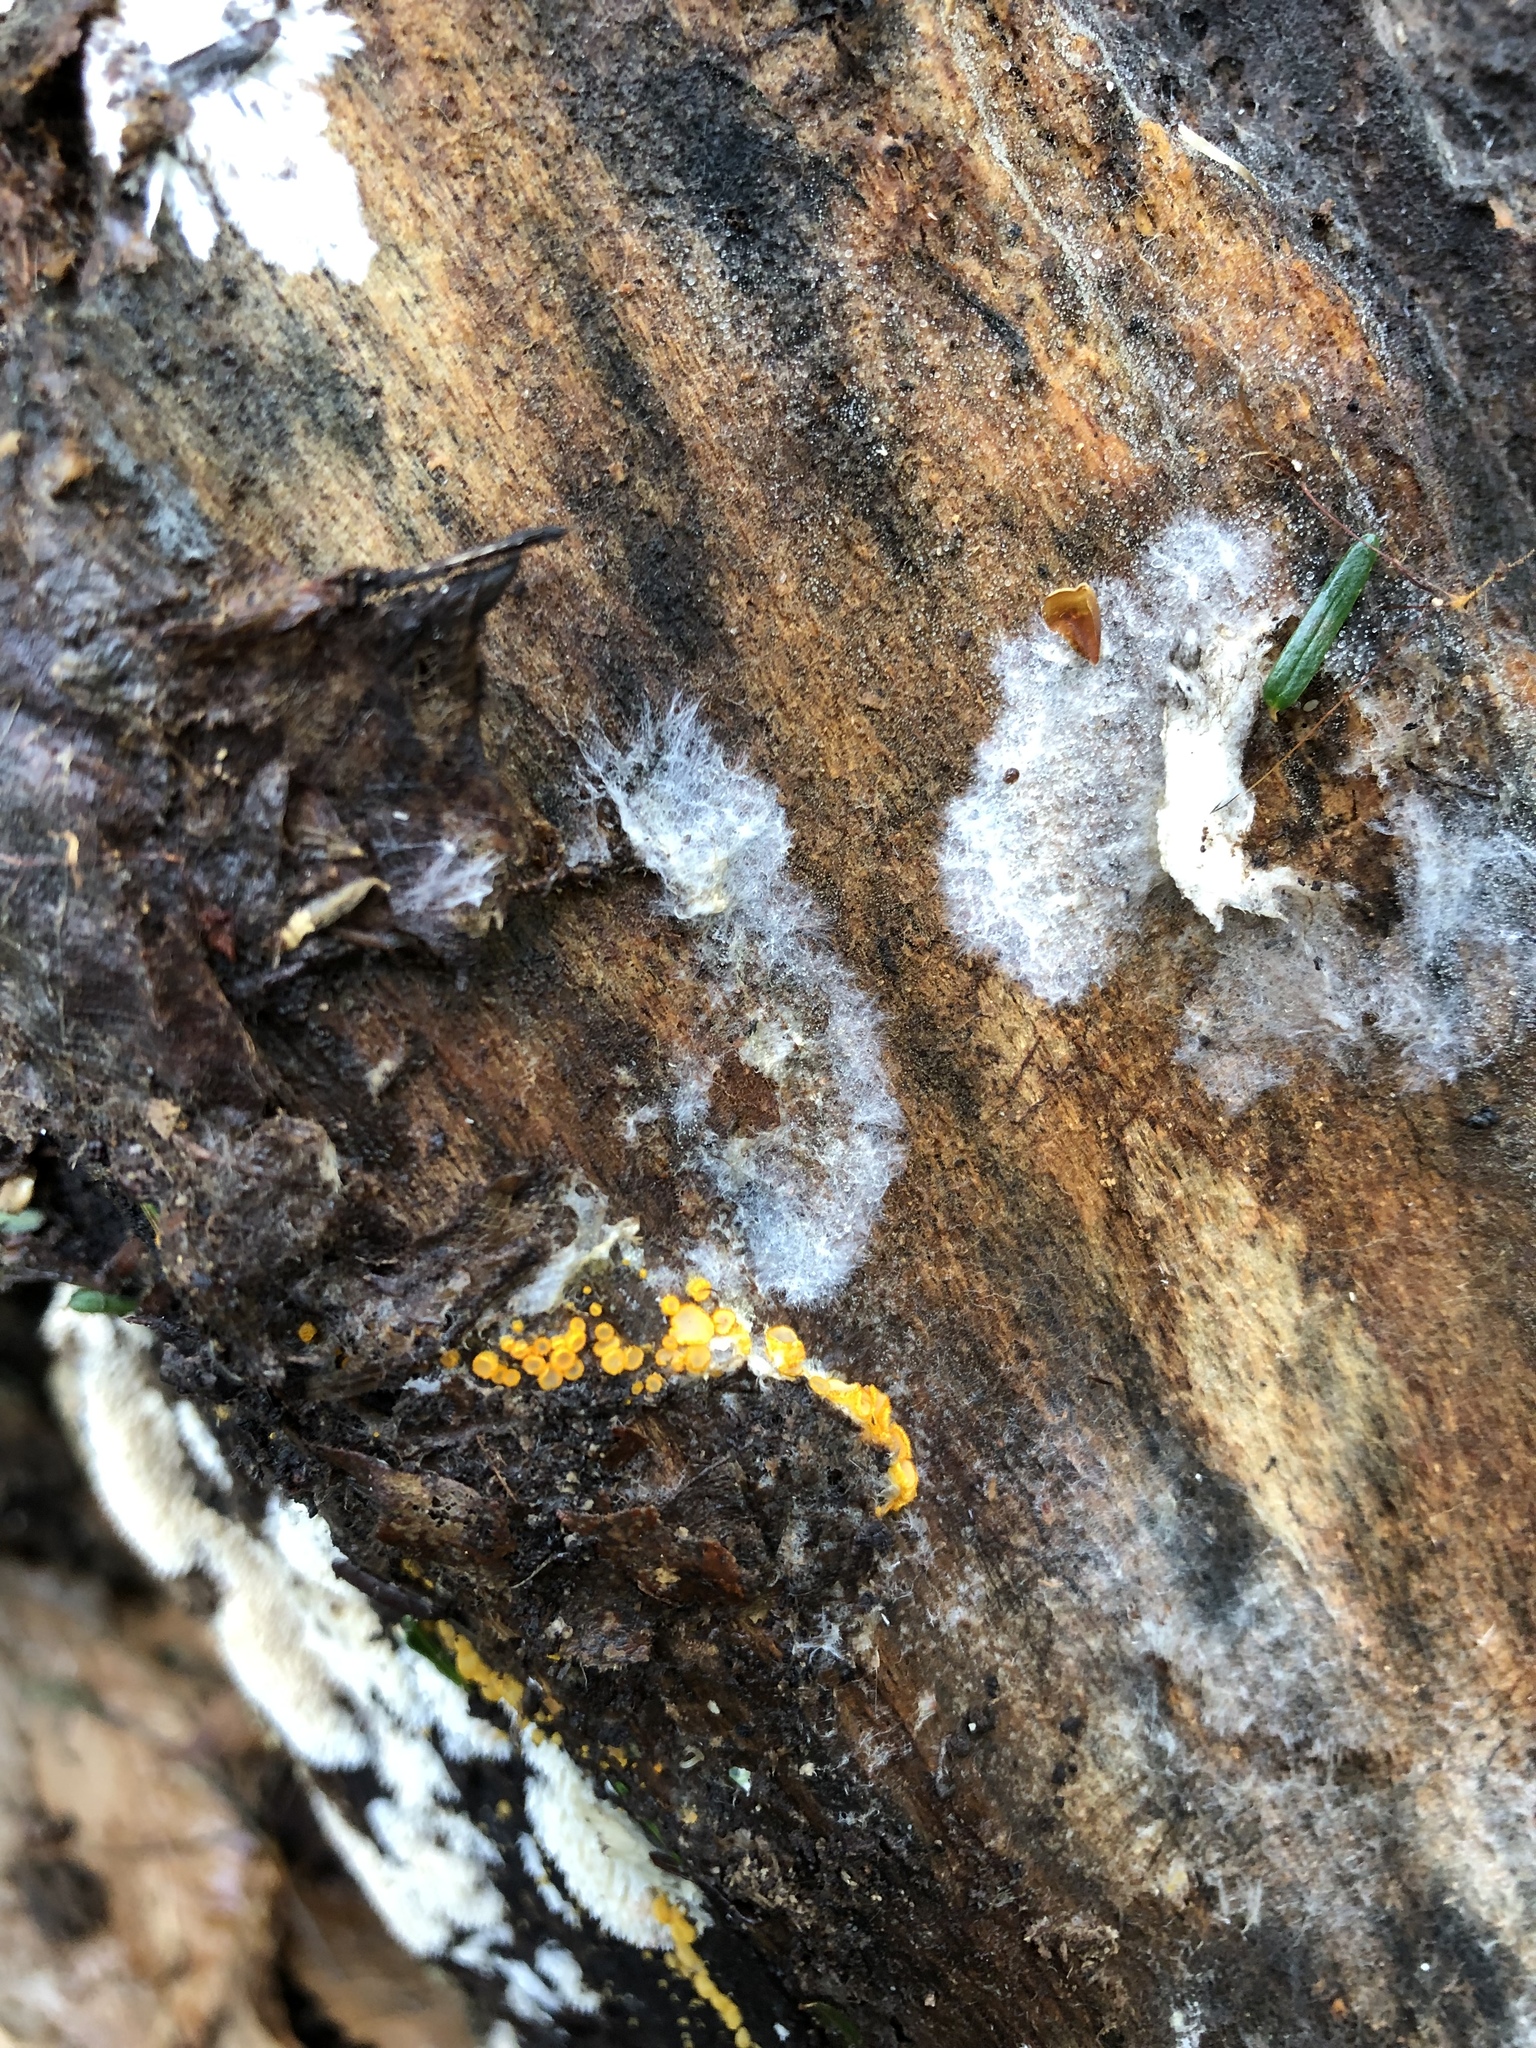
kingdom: Fungi
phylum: Ascomycota
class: Leotiomycetes
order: Helotiales
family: Arachnopezizaceae
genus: Arachnopeziza
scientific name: Arachnopeziza aurelia
